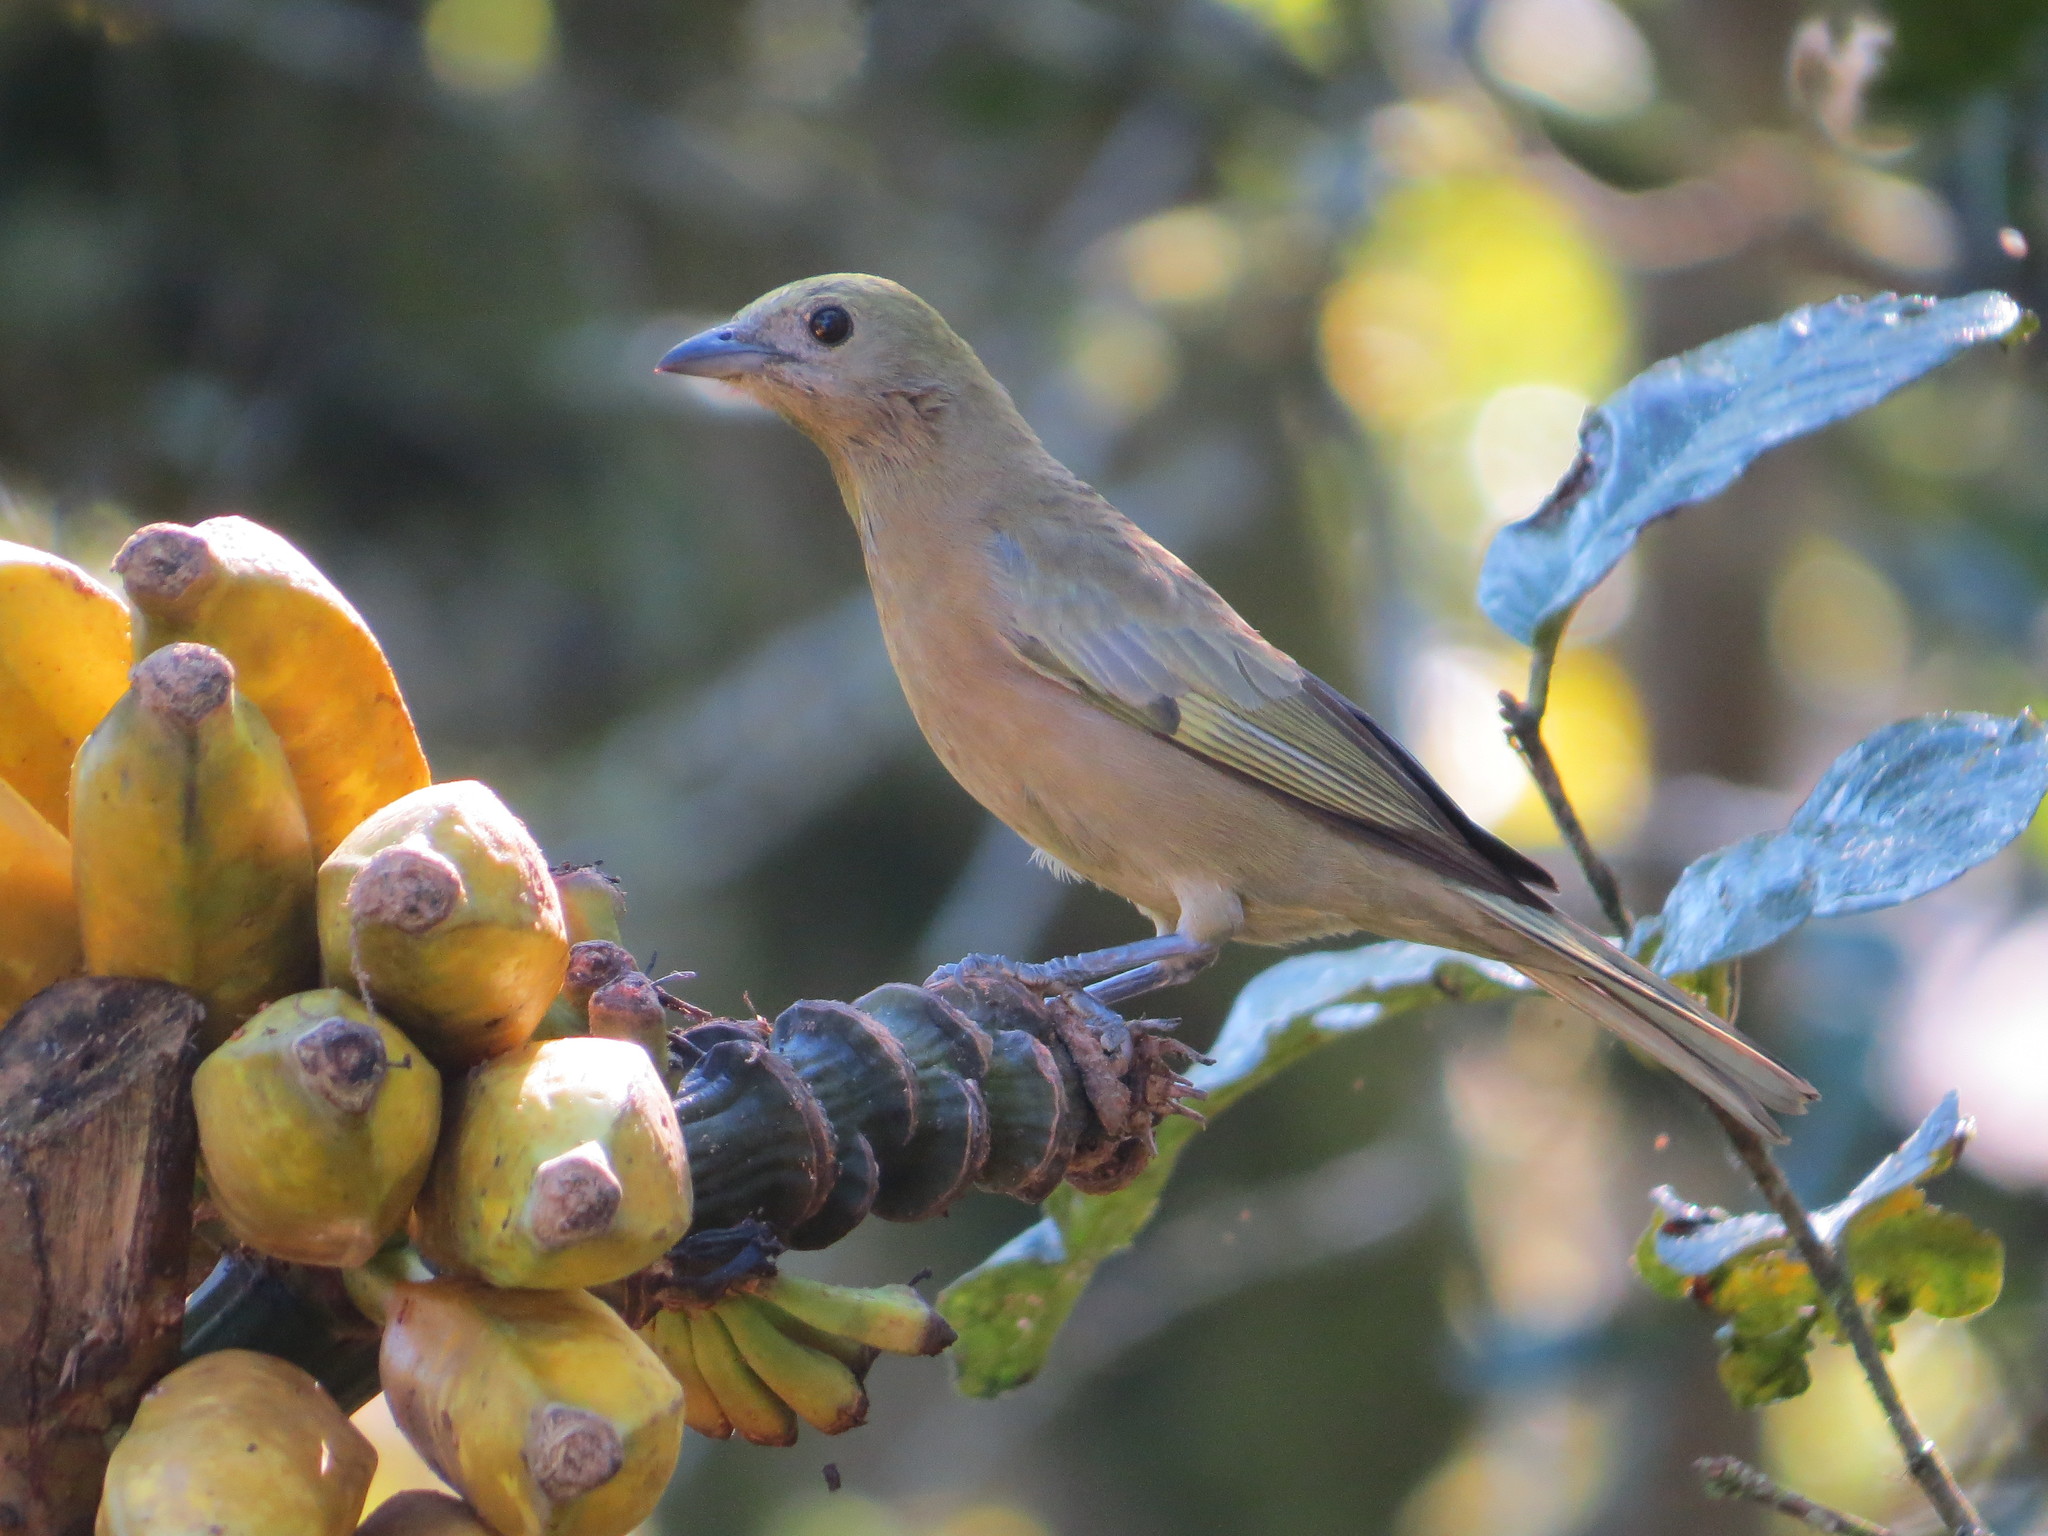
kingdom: Animalia
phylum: Chordata
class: Aves
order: Passeriformes
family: Thraupidae
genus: Thraupis
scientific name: Thraupis palmarum
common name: Palm tanager
